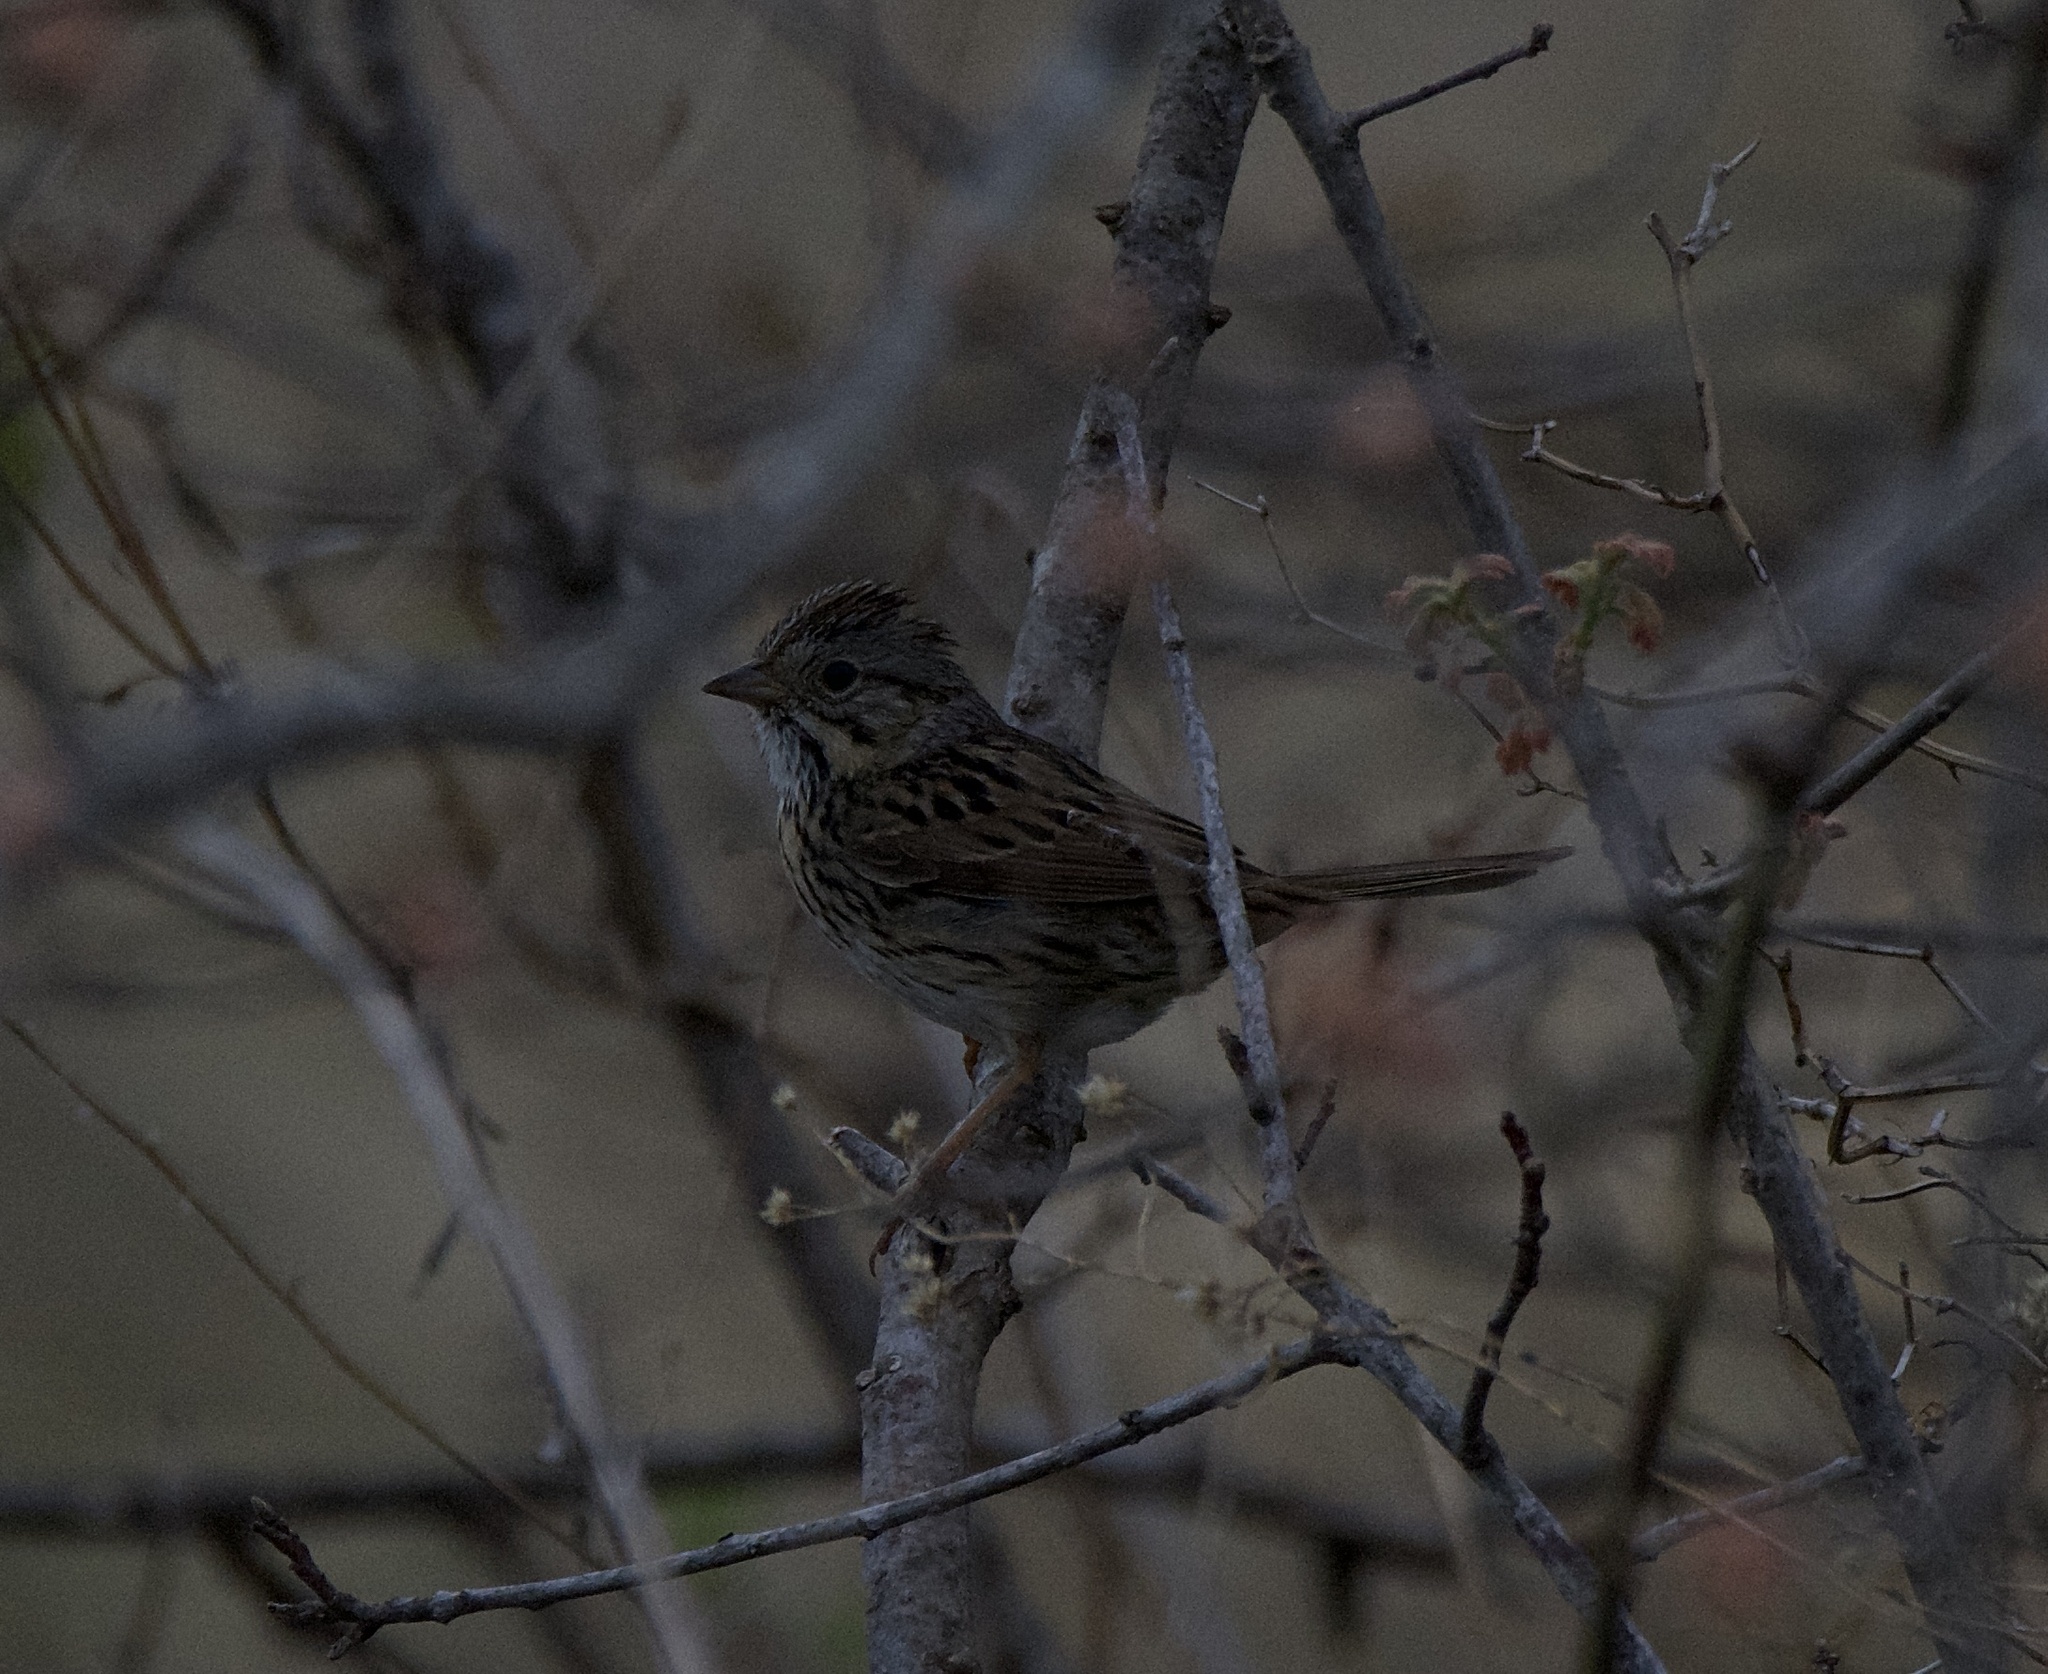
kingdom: Animalia
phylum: Chordata
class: Aves
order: Passeriformes
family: Passerellidae
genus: Melospiza
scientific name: Melospiza lincolnii
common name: Lincoln's sparrow
